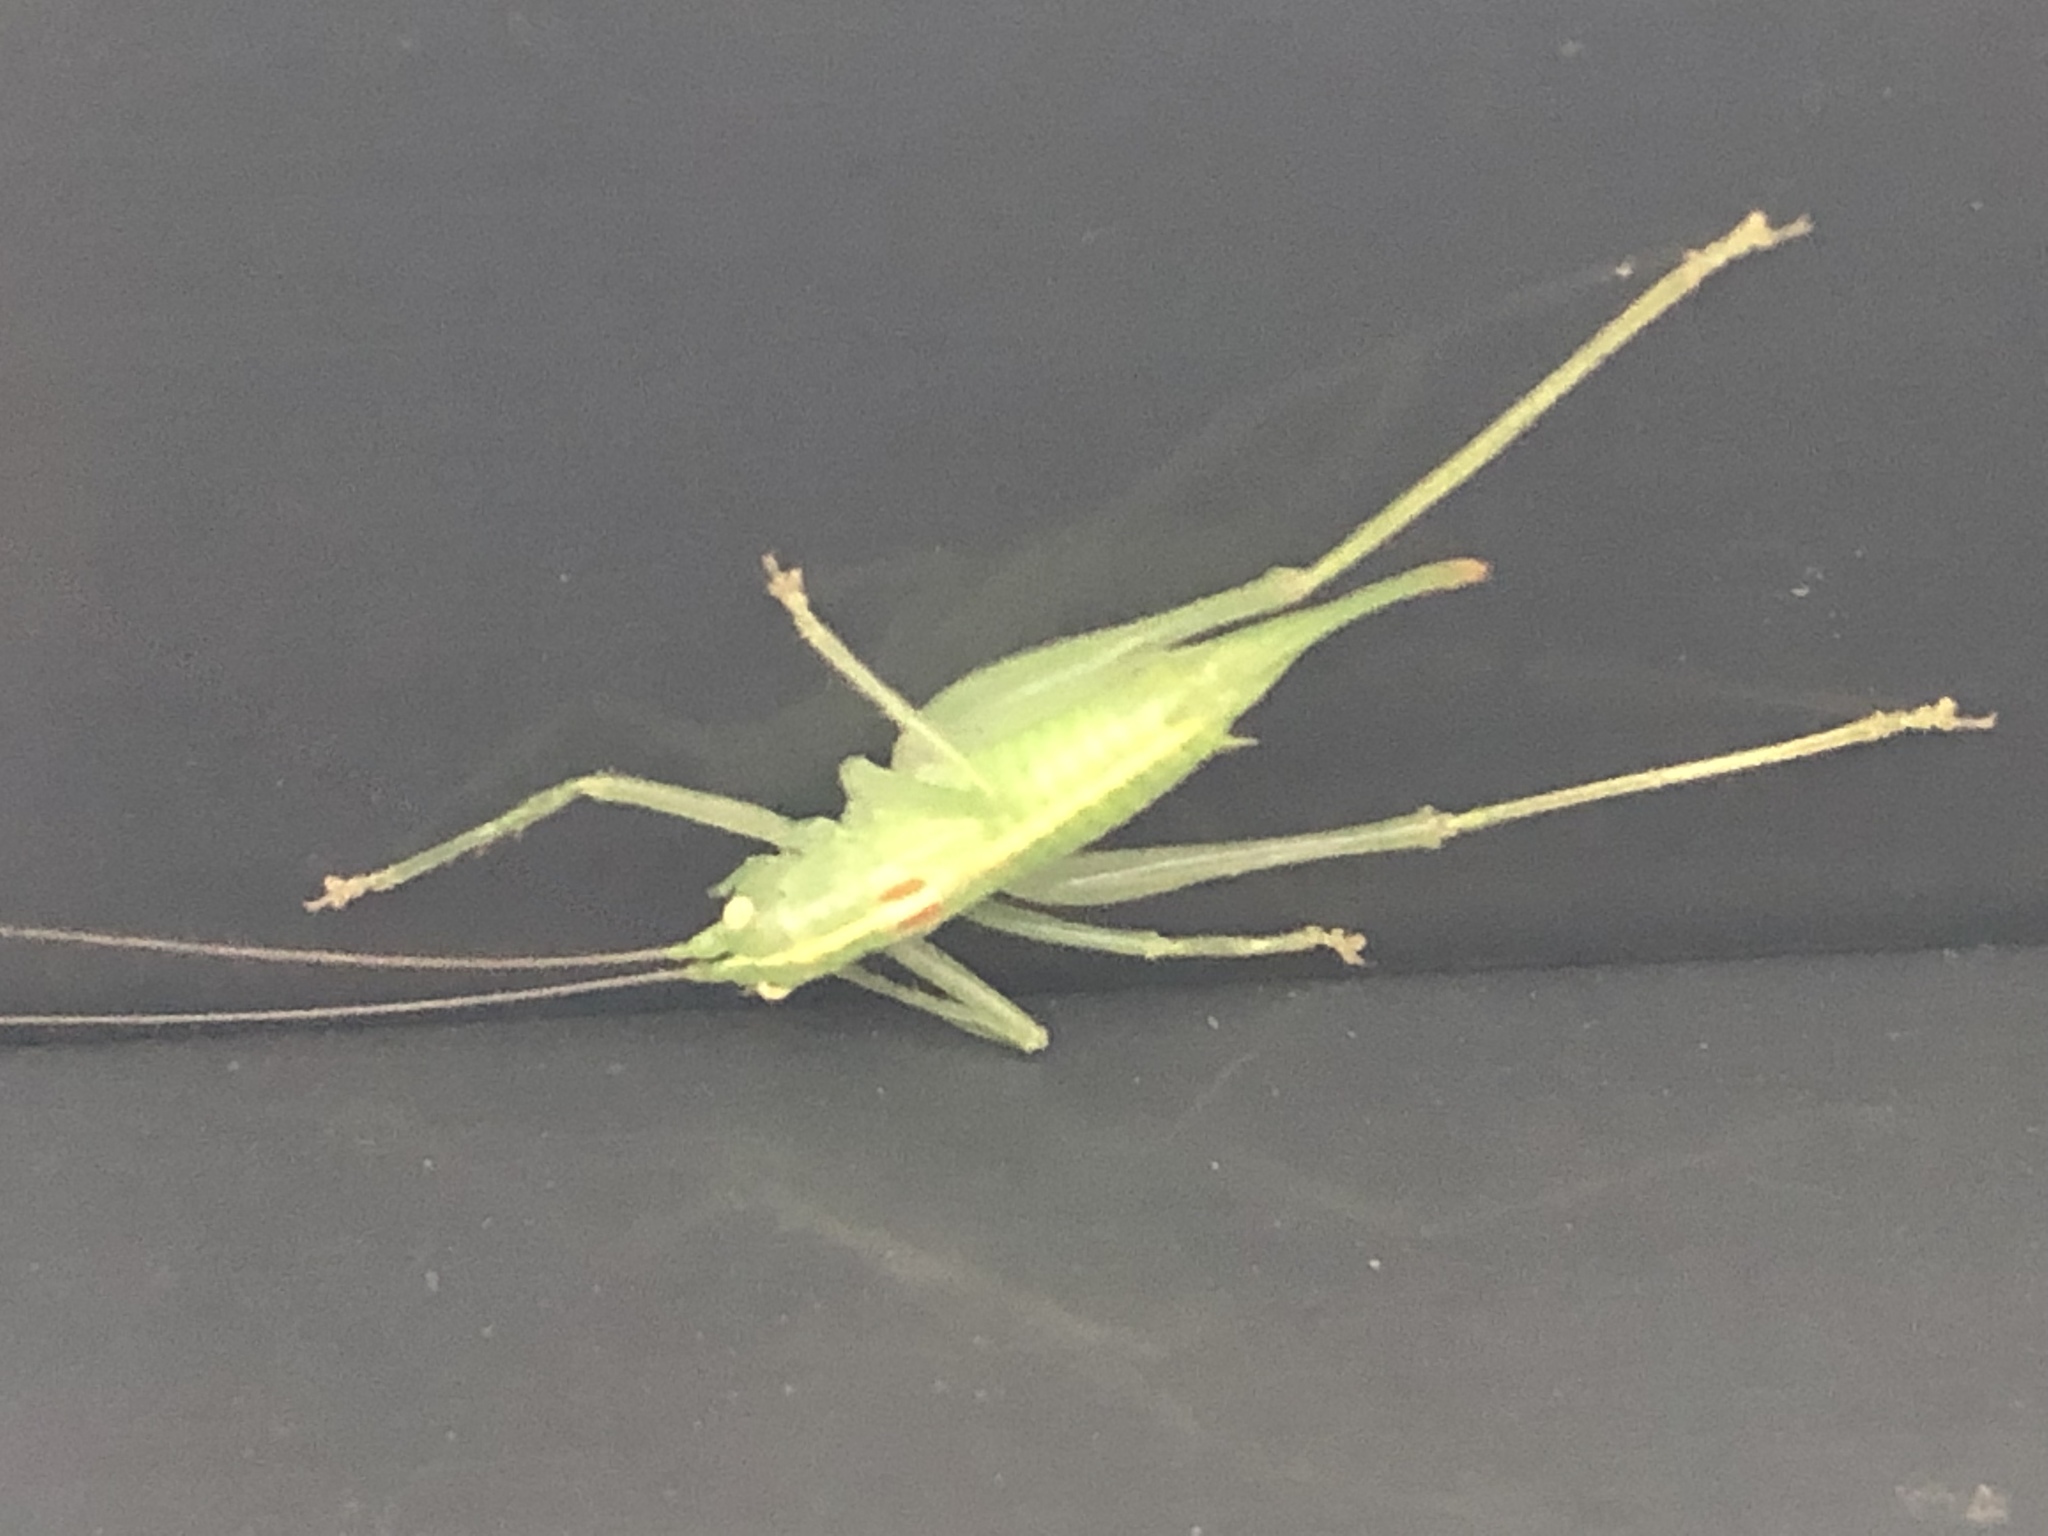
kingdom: Animalia
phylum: Arthropoda
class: Insecta
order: Orthoptera
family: Tettigoniidae
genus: Meconema
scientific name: Meconema meridionale
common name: Southern oak bush-cricket
